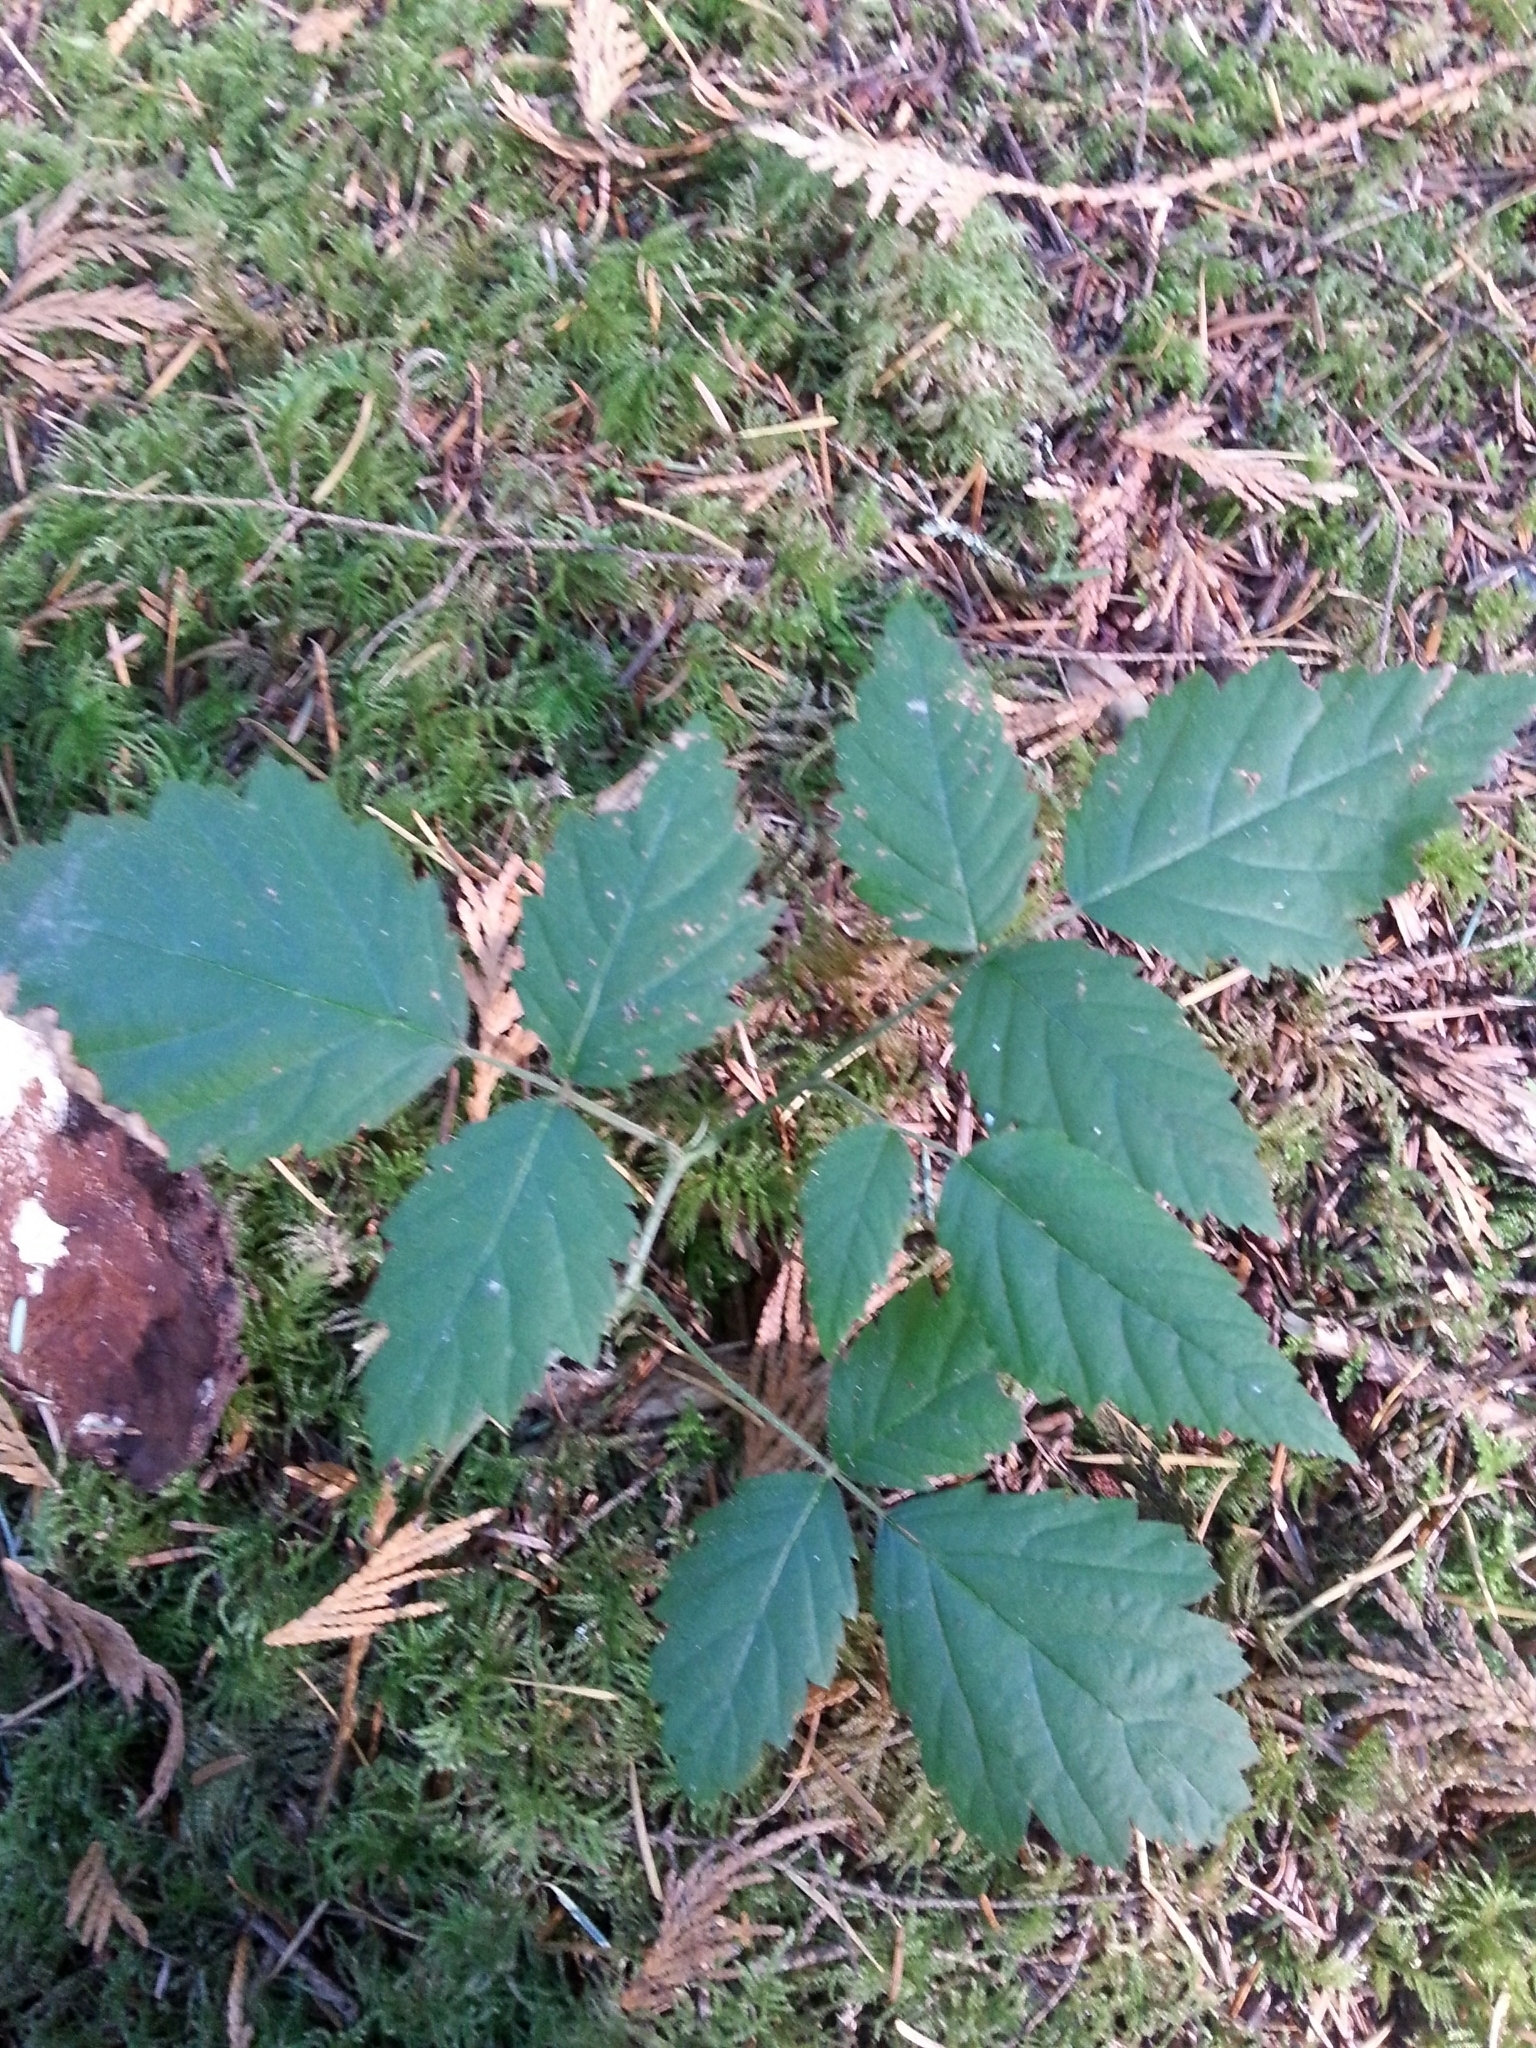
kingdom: Plantae
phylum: Tracheophyta
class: Magnoliopsida
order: Rosales
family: Rosaceae
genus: Rubus
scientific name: Rubus ursinus
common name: Pacific blackberry
